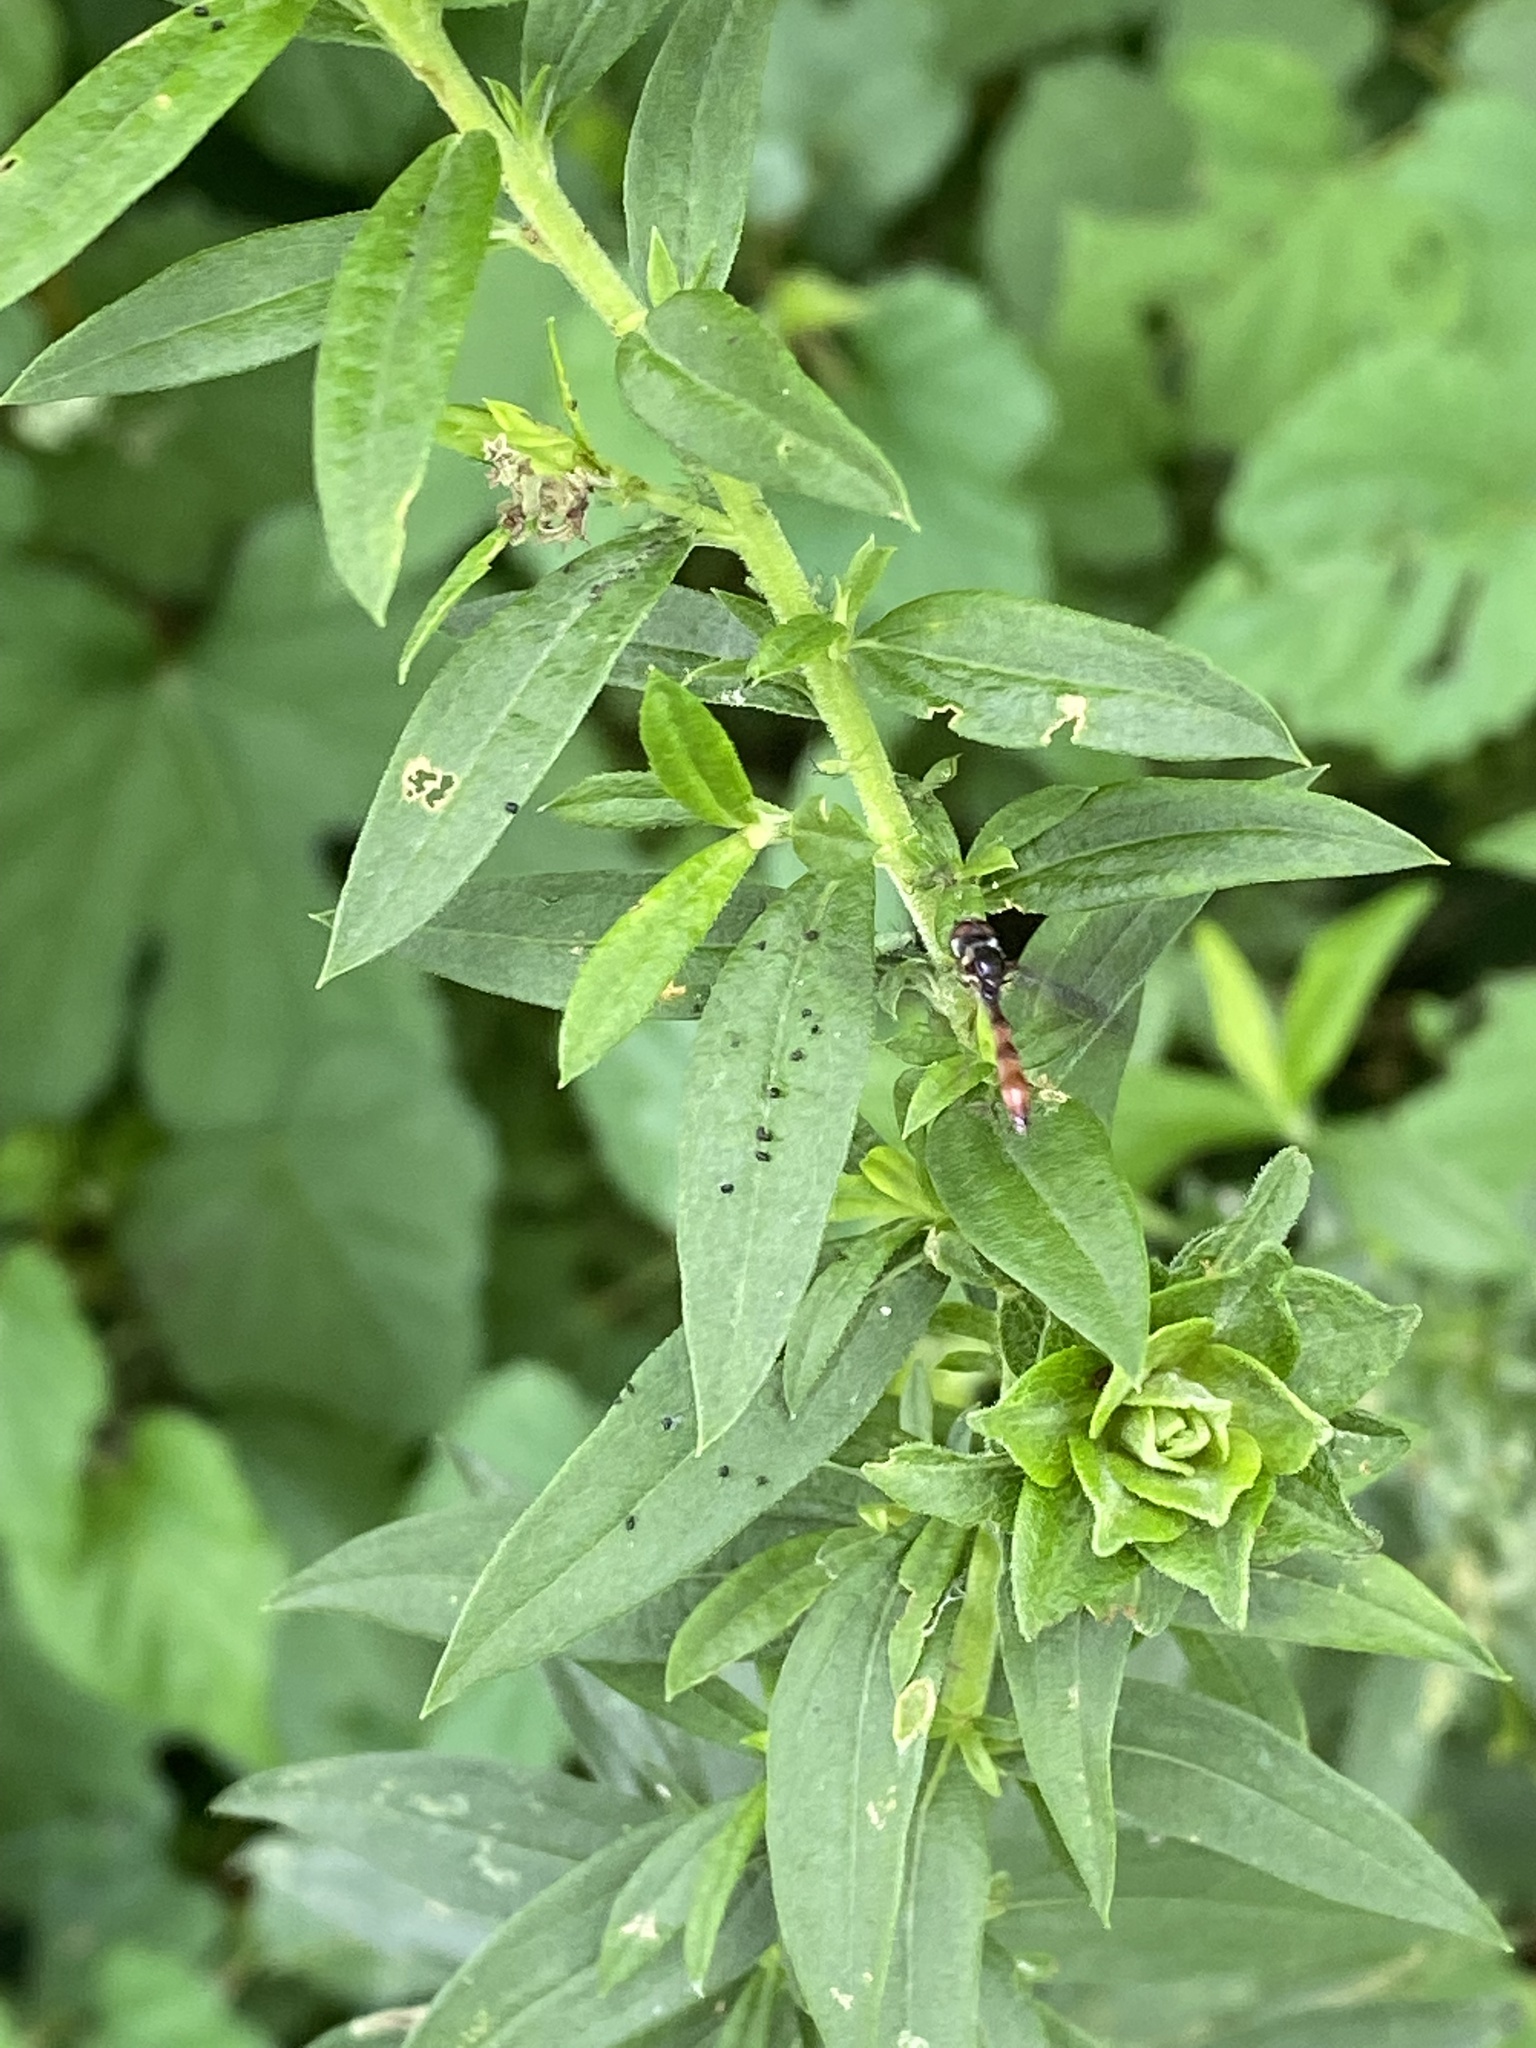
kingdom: Animalia
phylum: Arthropoda
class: Insecta
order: Diptera
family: Syrphidae
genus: Ocyptamus
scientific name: Ocyptamus fuscipennis
